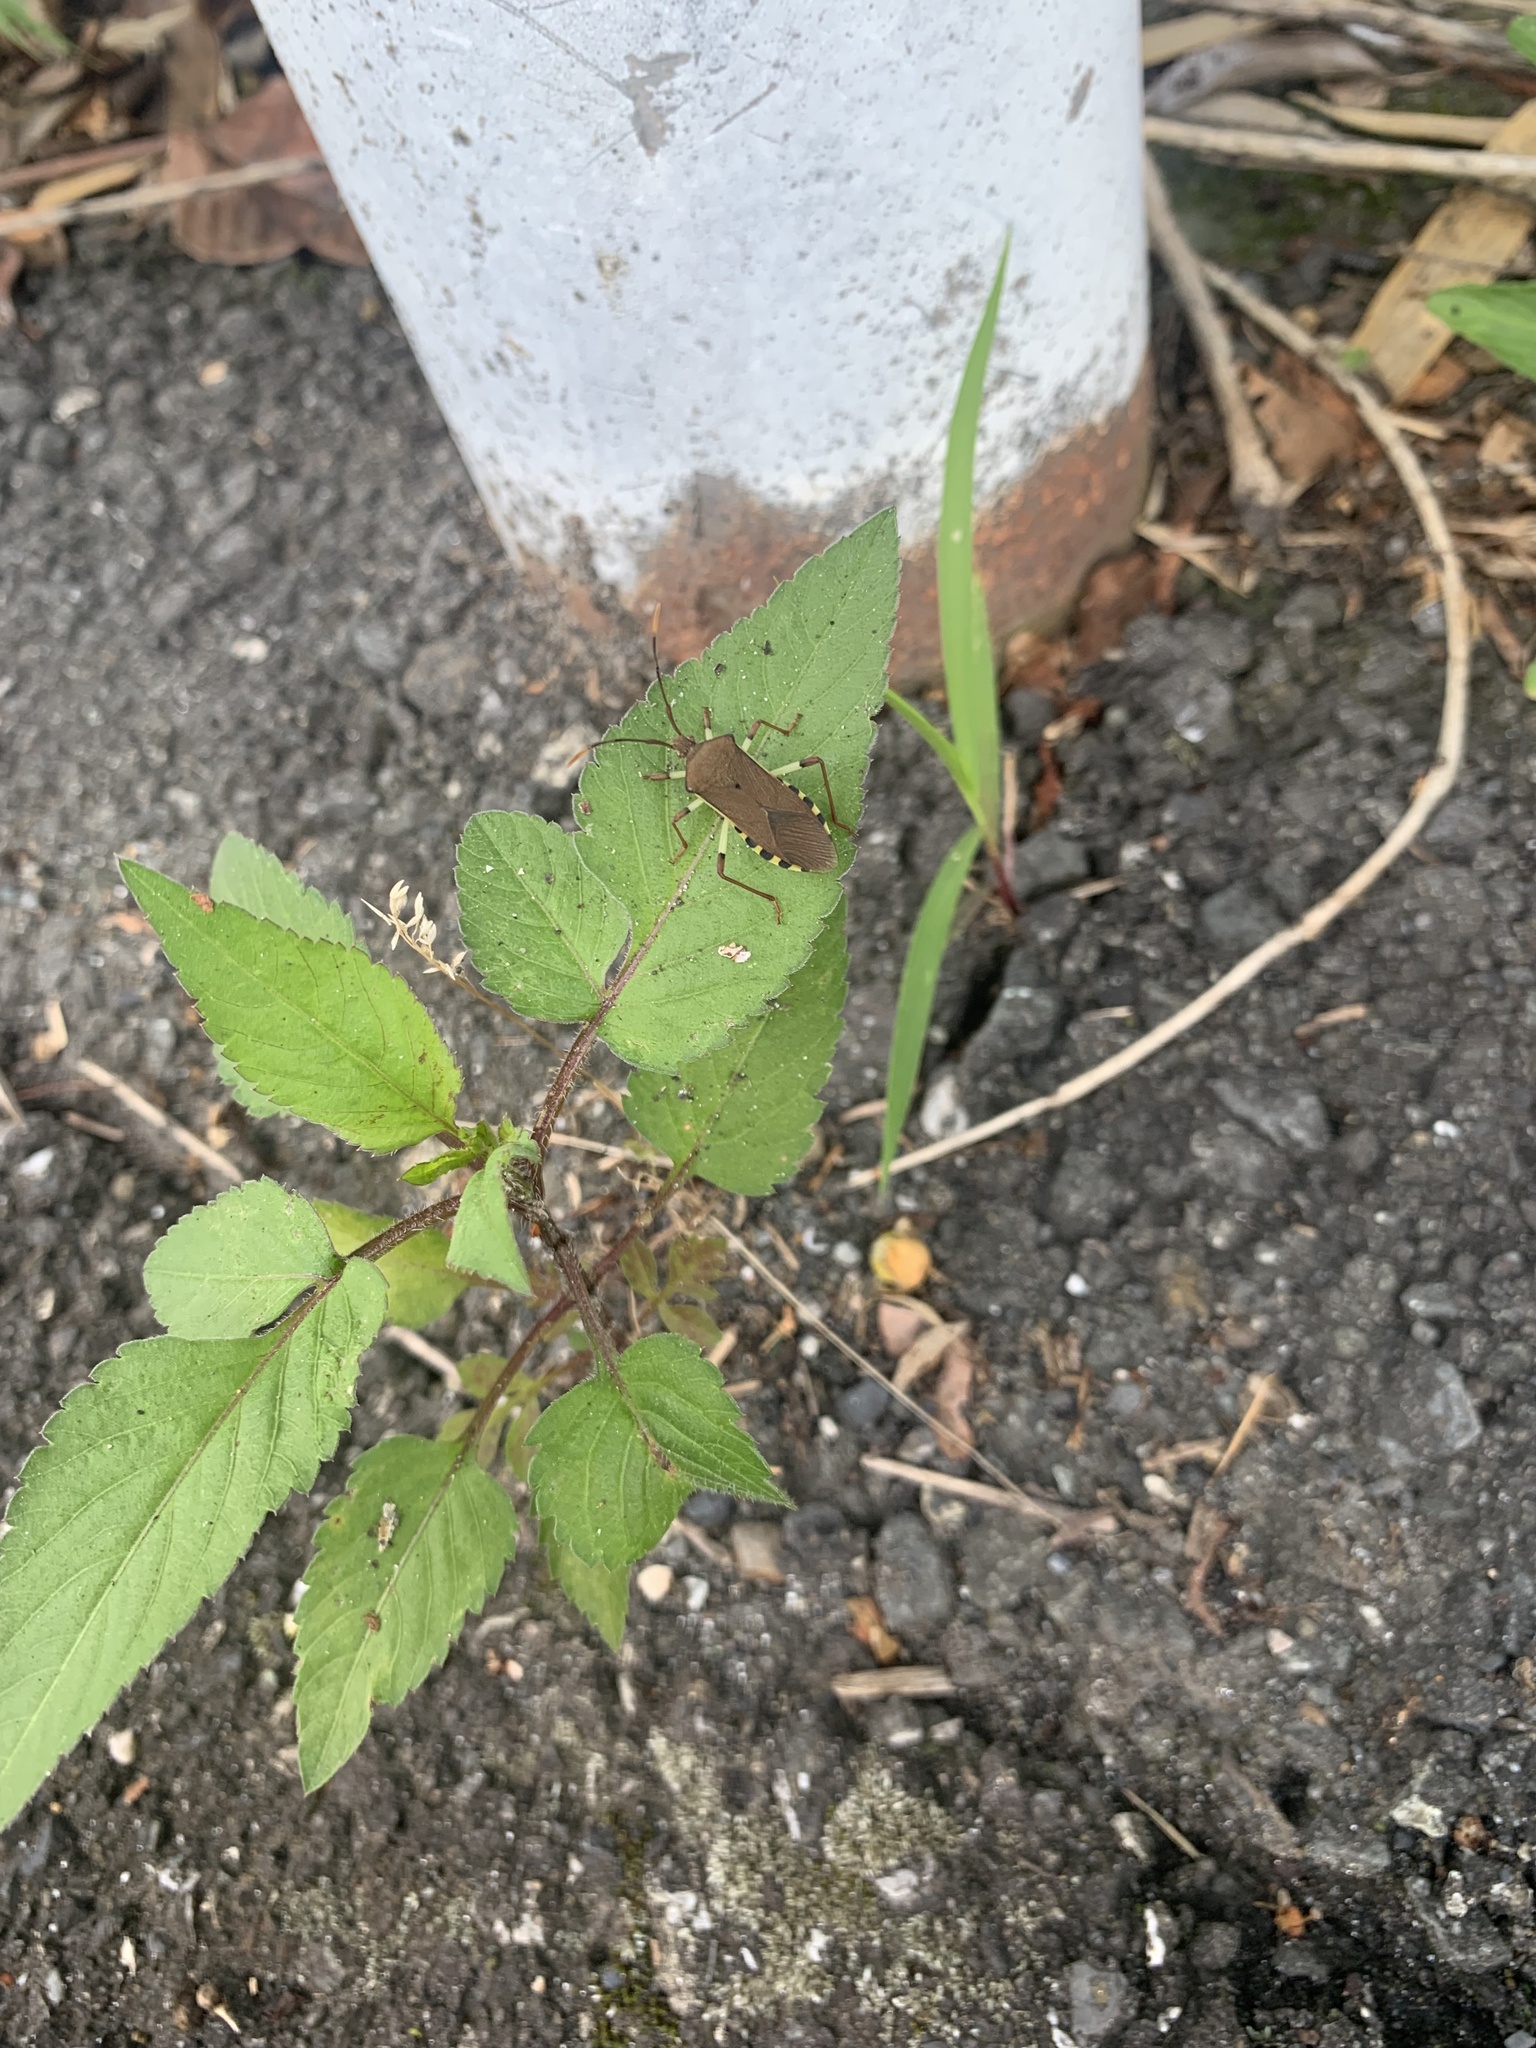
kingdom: Animalia
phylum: Arthropoda
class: Insecta
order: Hemiptera
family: Coreidae
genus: Plinachtus
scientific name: Plinachtus bicoloripes
